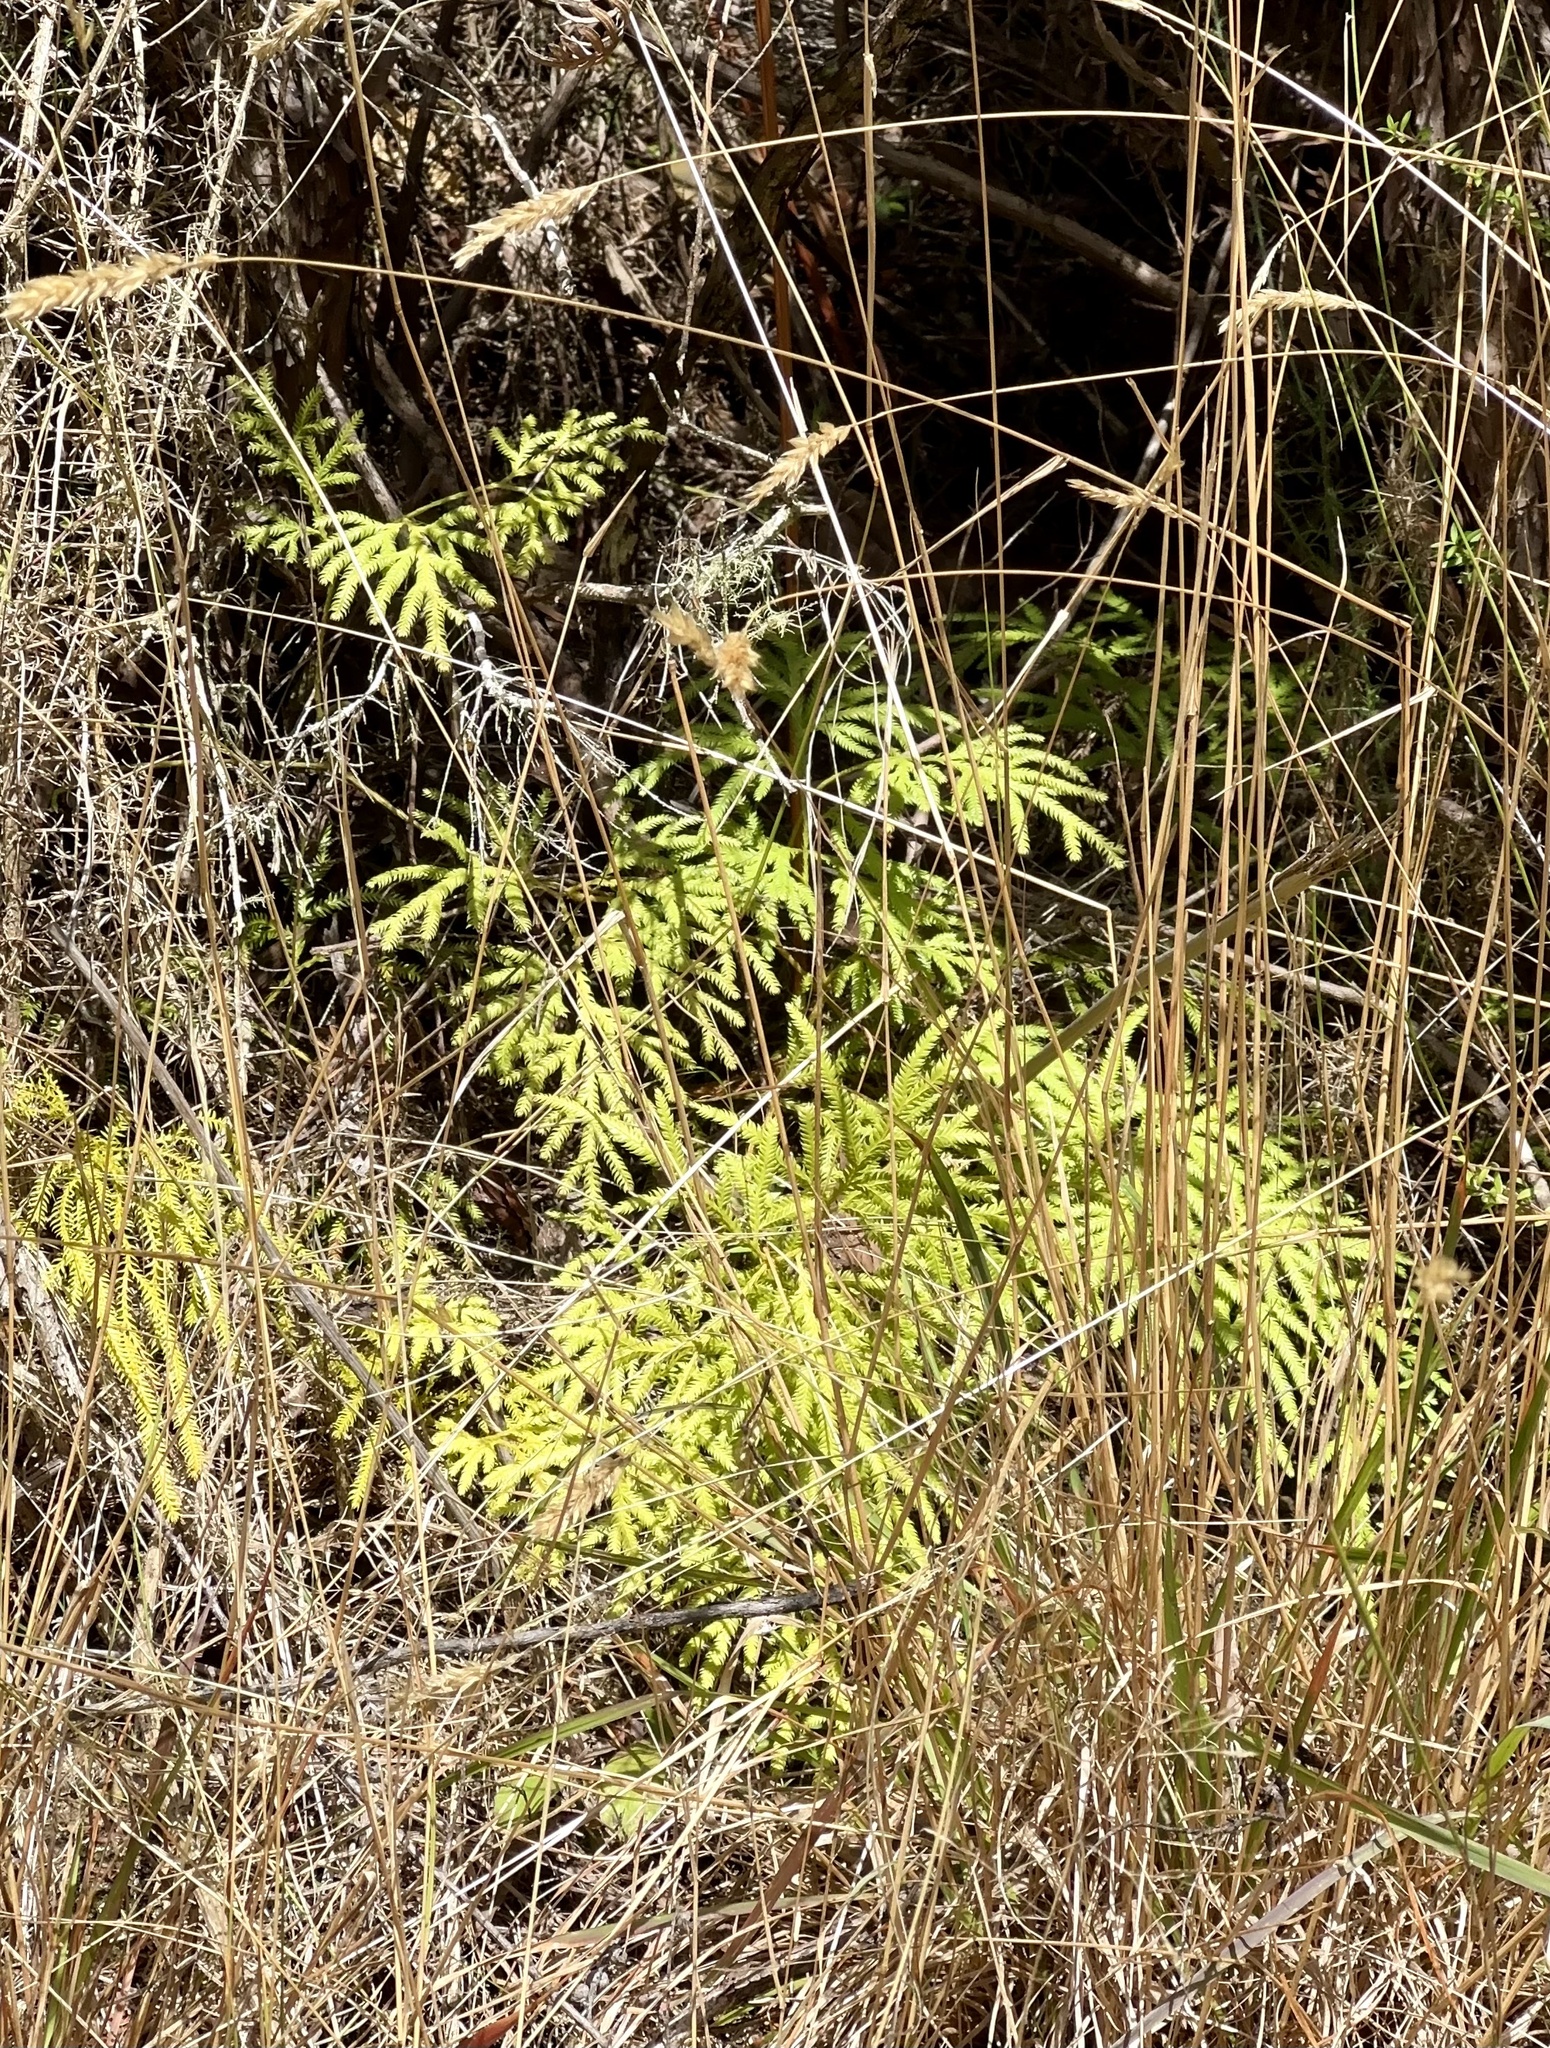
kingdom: Plantae
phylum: Tracheophyta
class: Lycopodiopsida
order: Lycopodiales
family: Lycopodiaceae
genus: Lycopodium
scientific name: Lycopodium volubile
